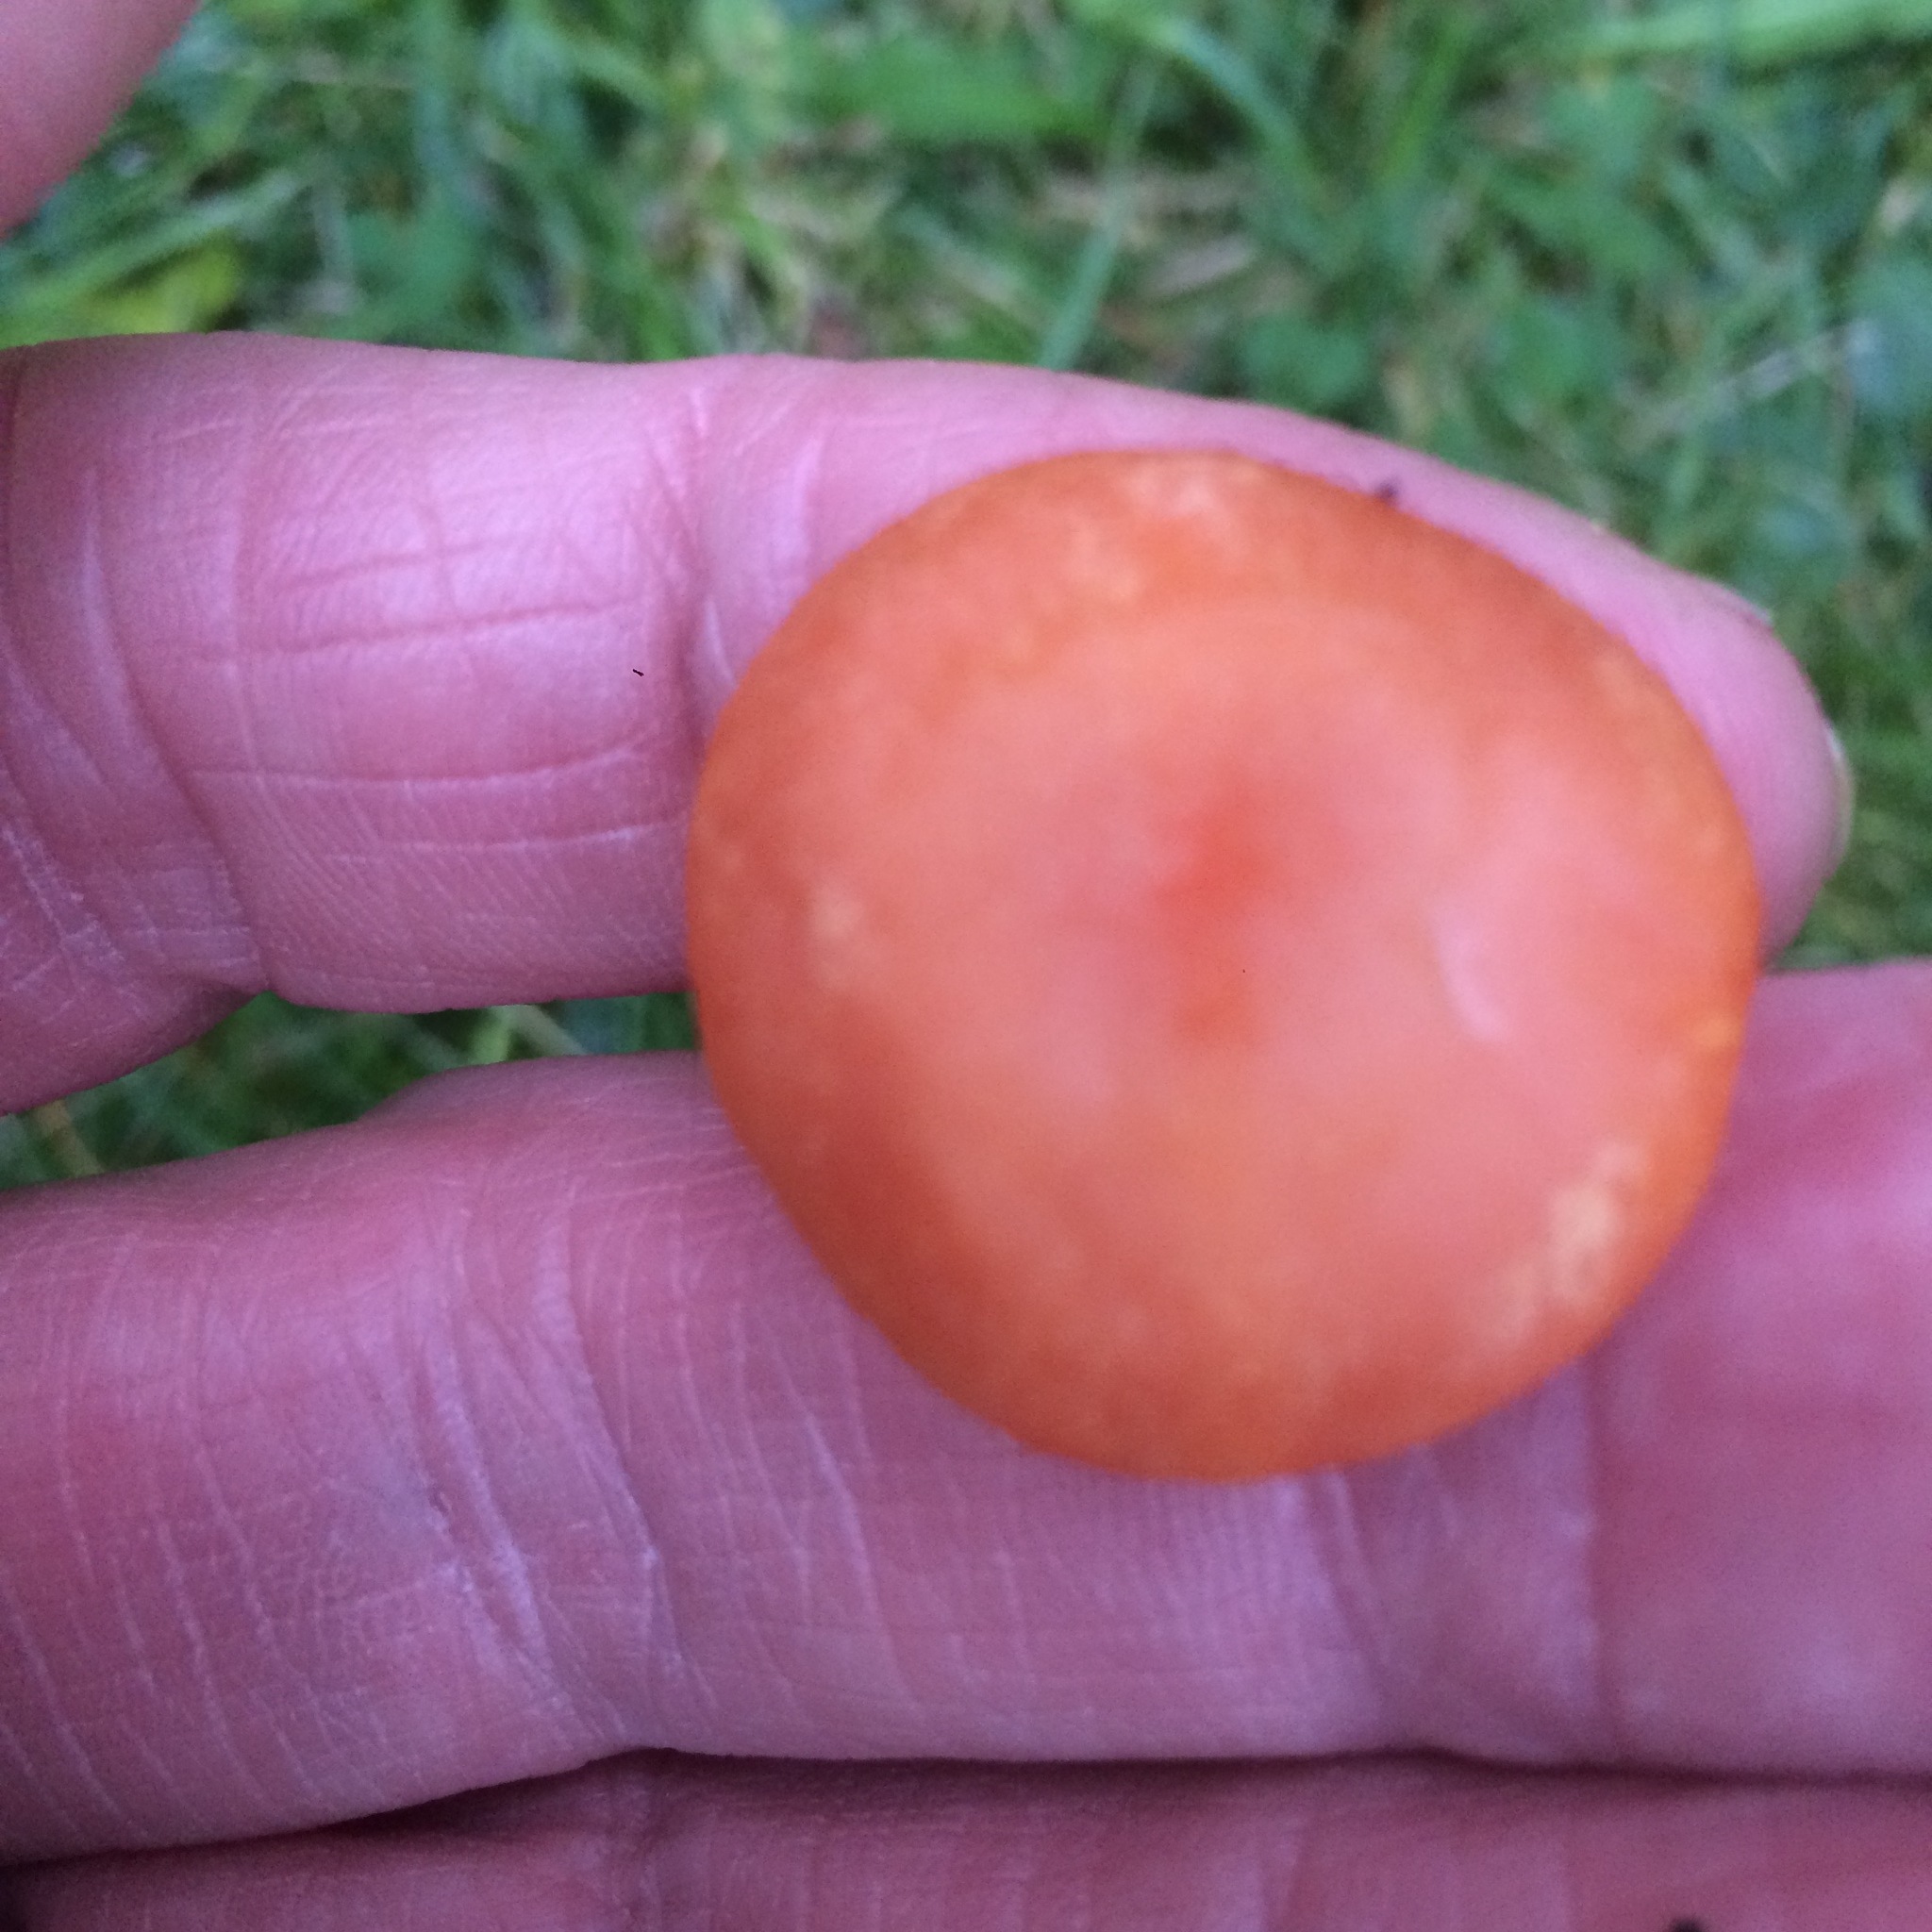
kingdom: Fungi
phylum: Basidiomycota
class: Agaricomycetes
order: Agaricales
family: Hygrophoraceae
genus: Hygrocybe
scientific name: Hygrocybe reidii
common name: Honey waxcap
